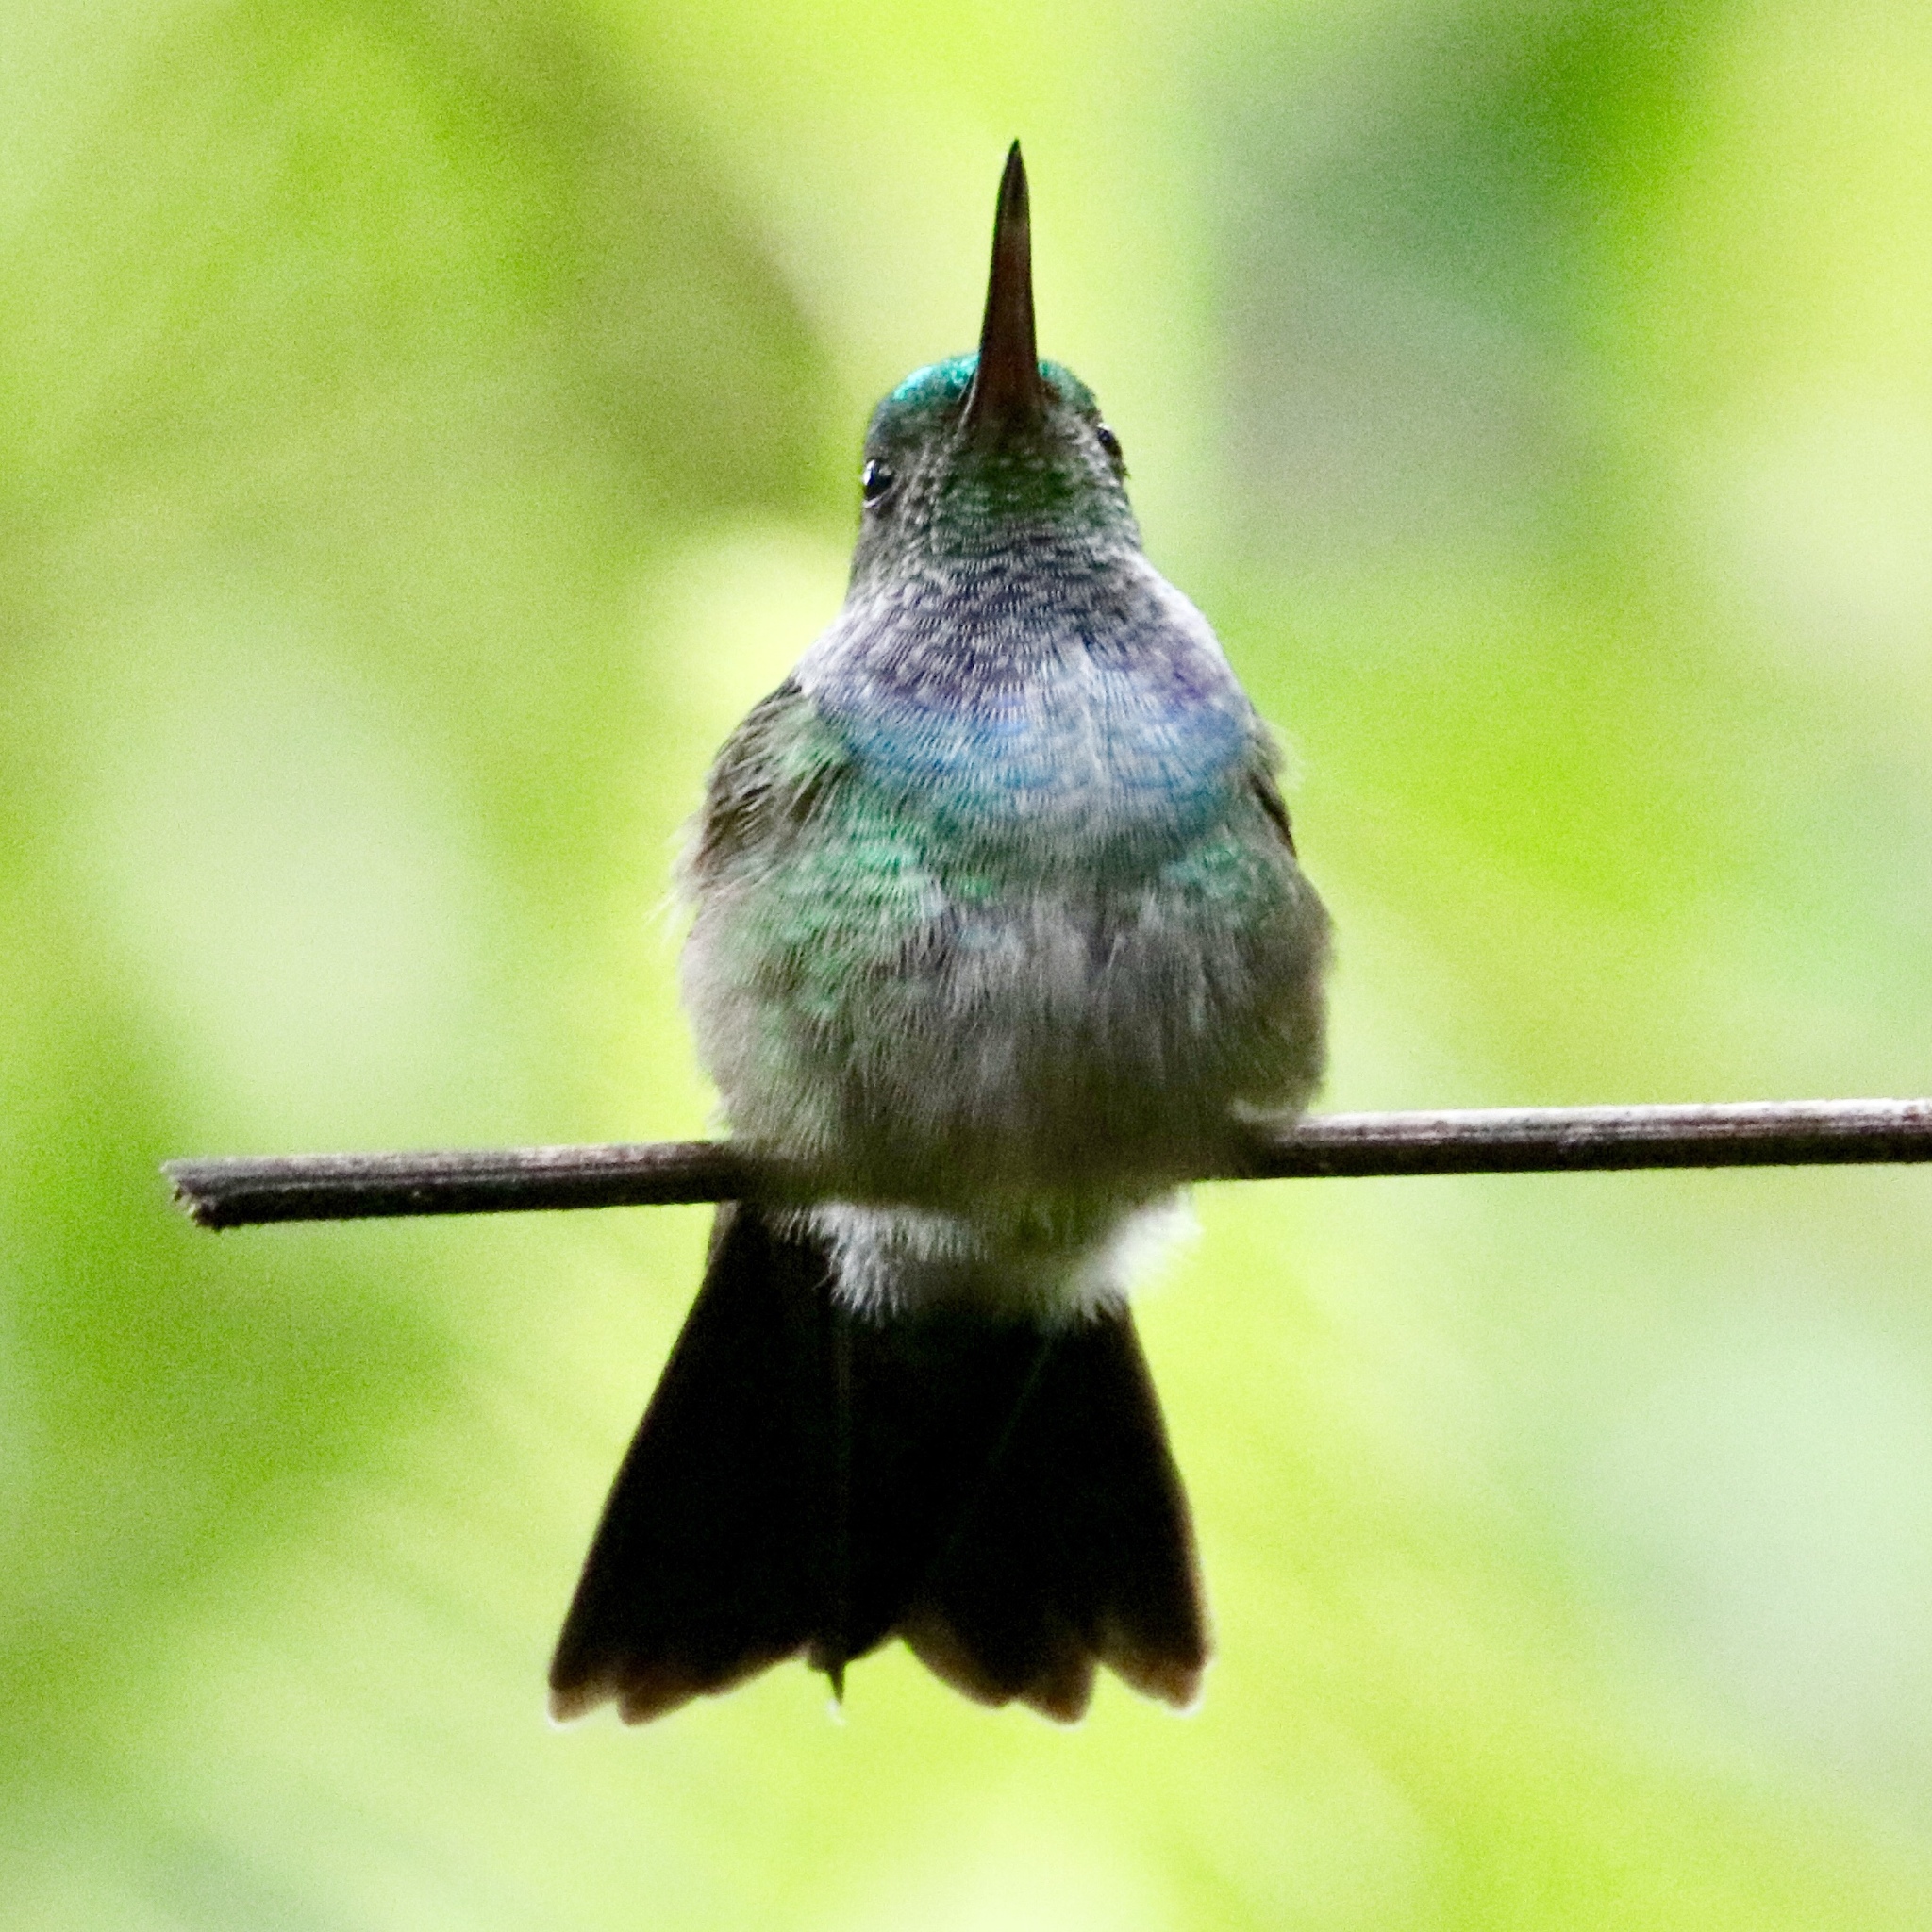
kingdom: Animalia
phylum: Chordata
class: Aves
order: Apodiformes
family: Trochilidae
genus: Polyerata
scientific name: Polyerata amabilis
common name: Blue-chested hummingbird
